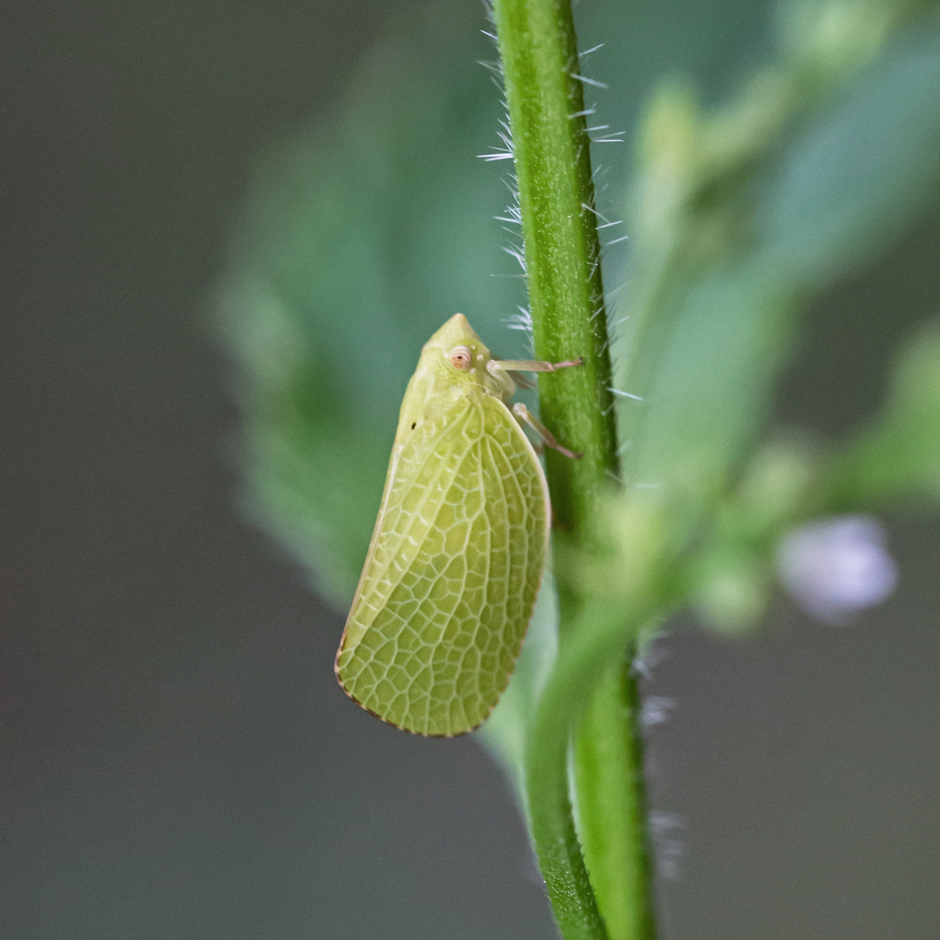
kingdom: Animalia
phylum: Arthropoda
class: Insecta
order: Hemiptera
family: Acanaloniidae
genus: Acanalonia
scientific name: Acanalonia conica
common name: Green cone-headed planthopper
